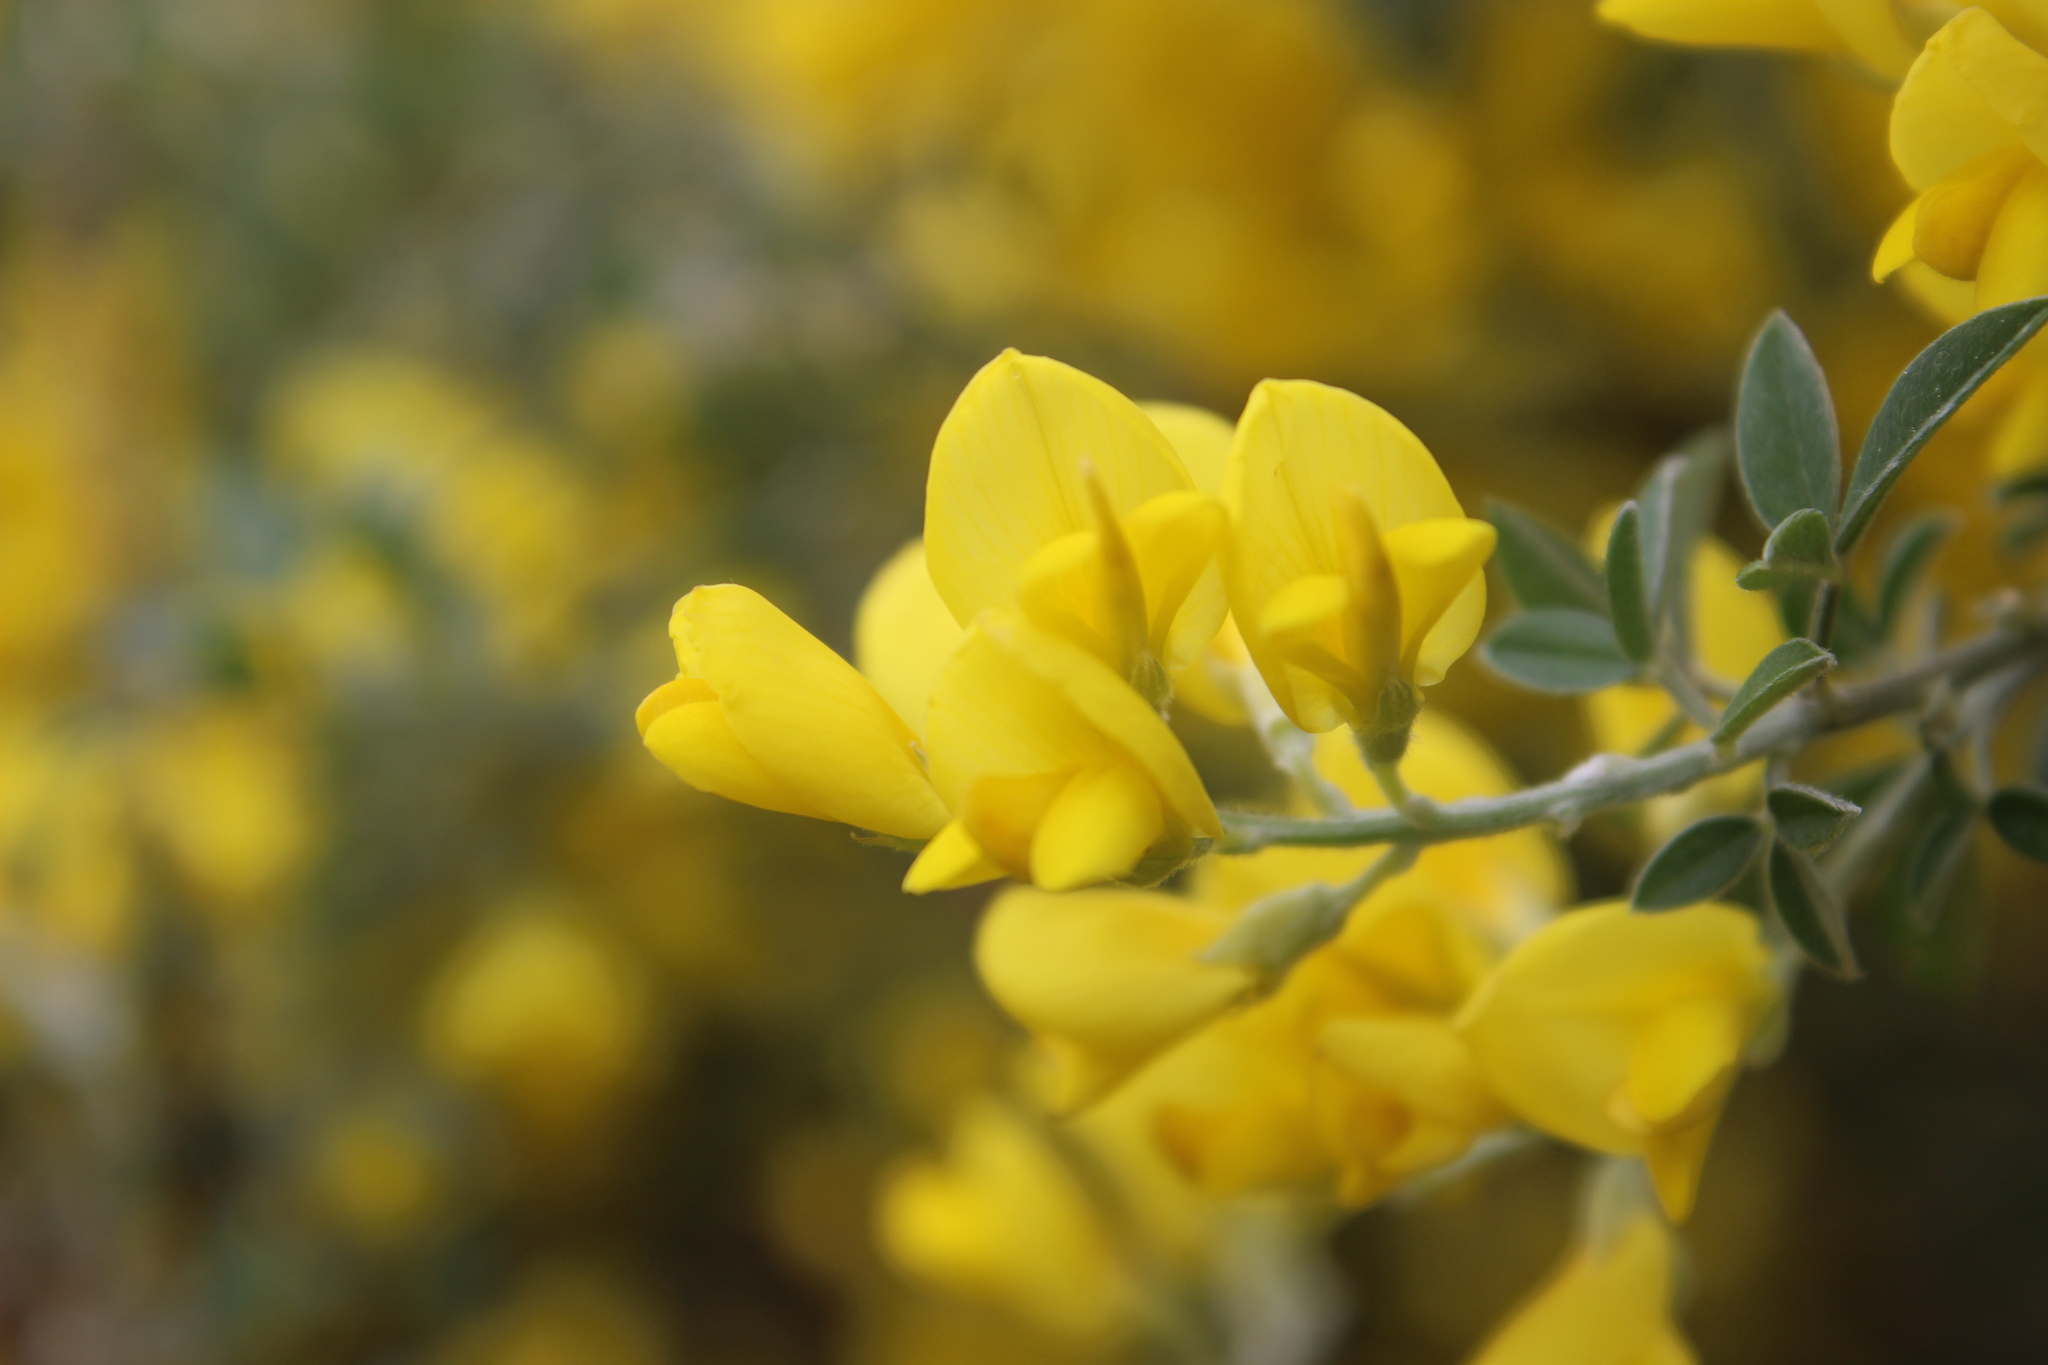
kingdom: Plantae
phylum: Tracheophyta
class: Magnoliopsida
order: Fabales
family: Fabaceae
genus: Genista
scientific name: Genista stenopetala
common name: Leafy broom
